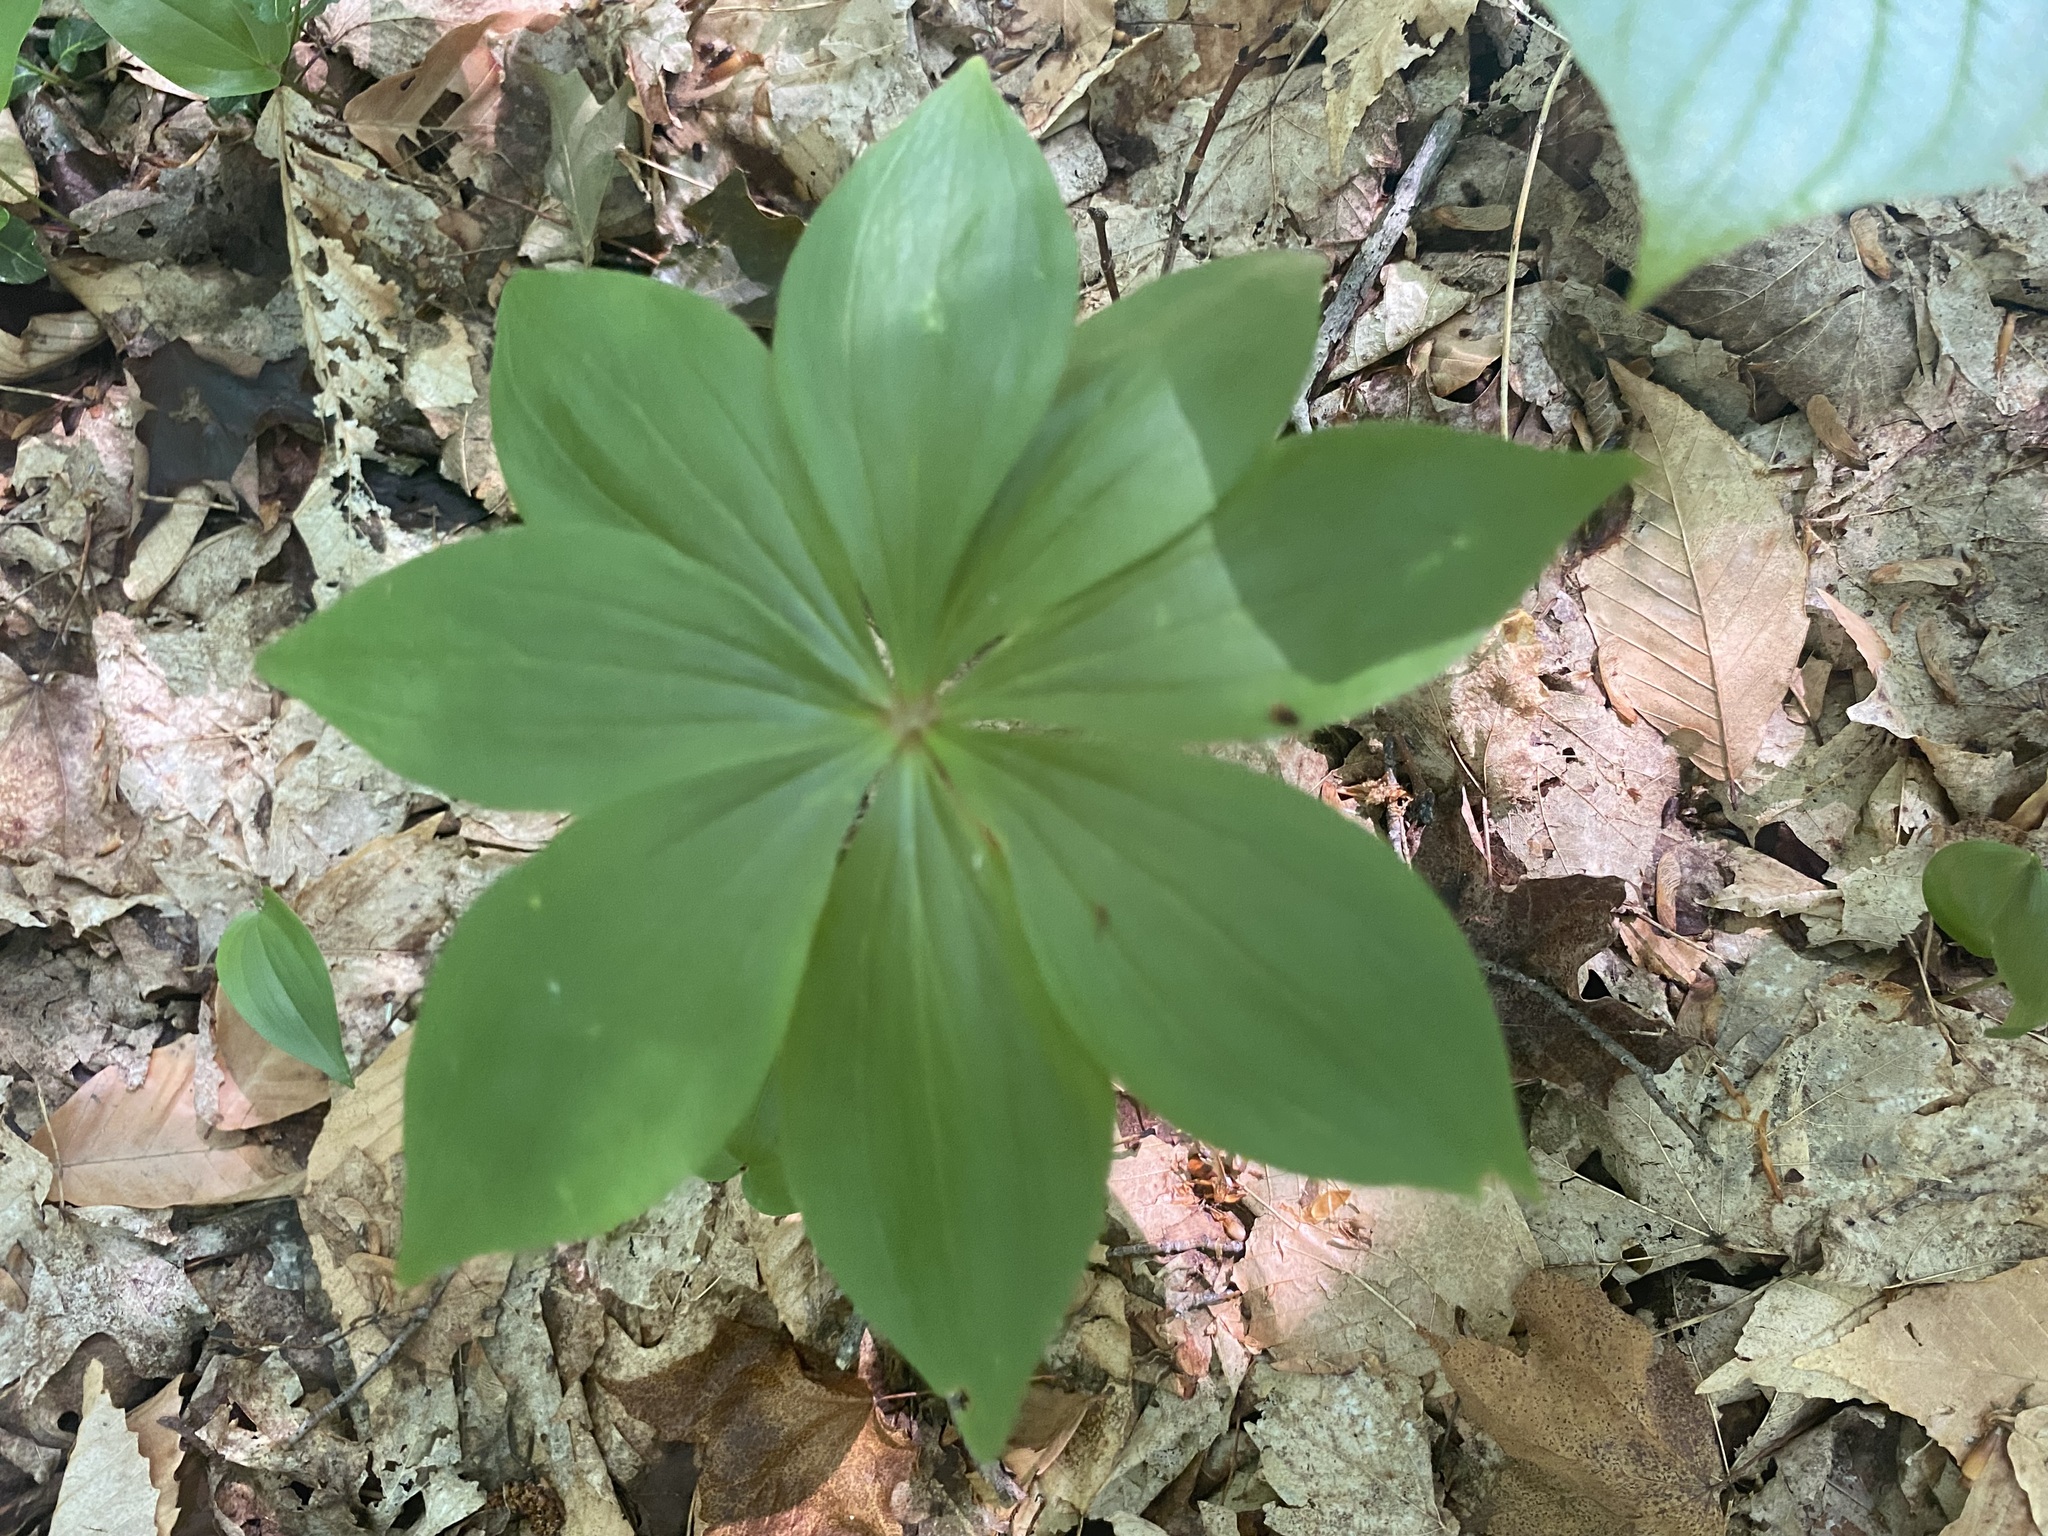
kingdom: Plantae
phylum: Tracheophyta
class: Liliopsida
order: Liliales
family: Liliaceae
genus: Medeola
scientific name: Medeola virginiana
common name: Indian cucumber-root
